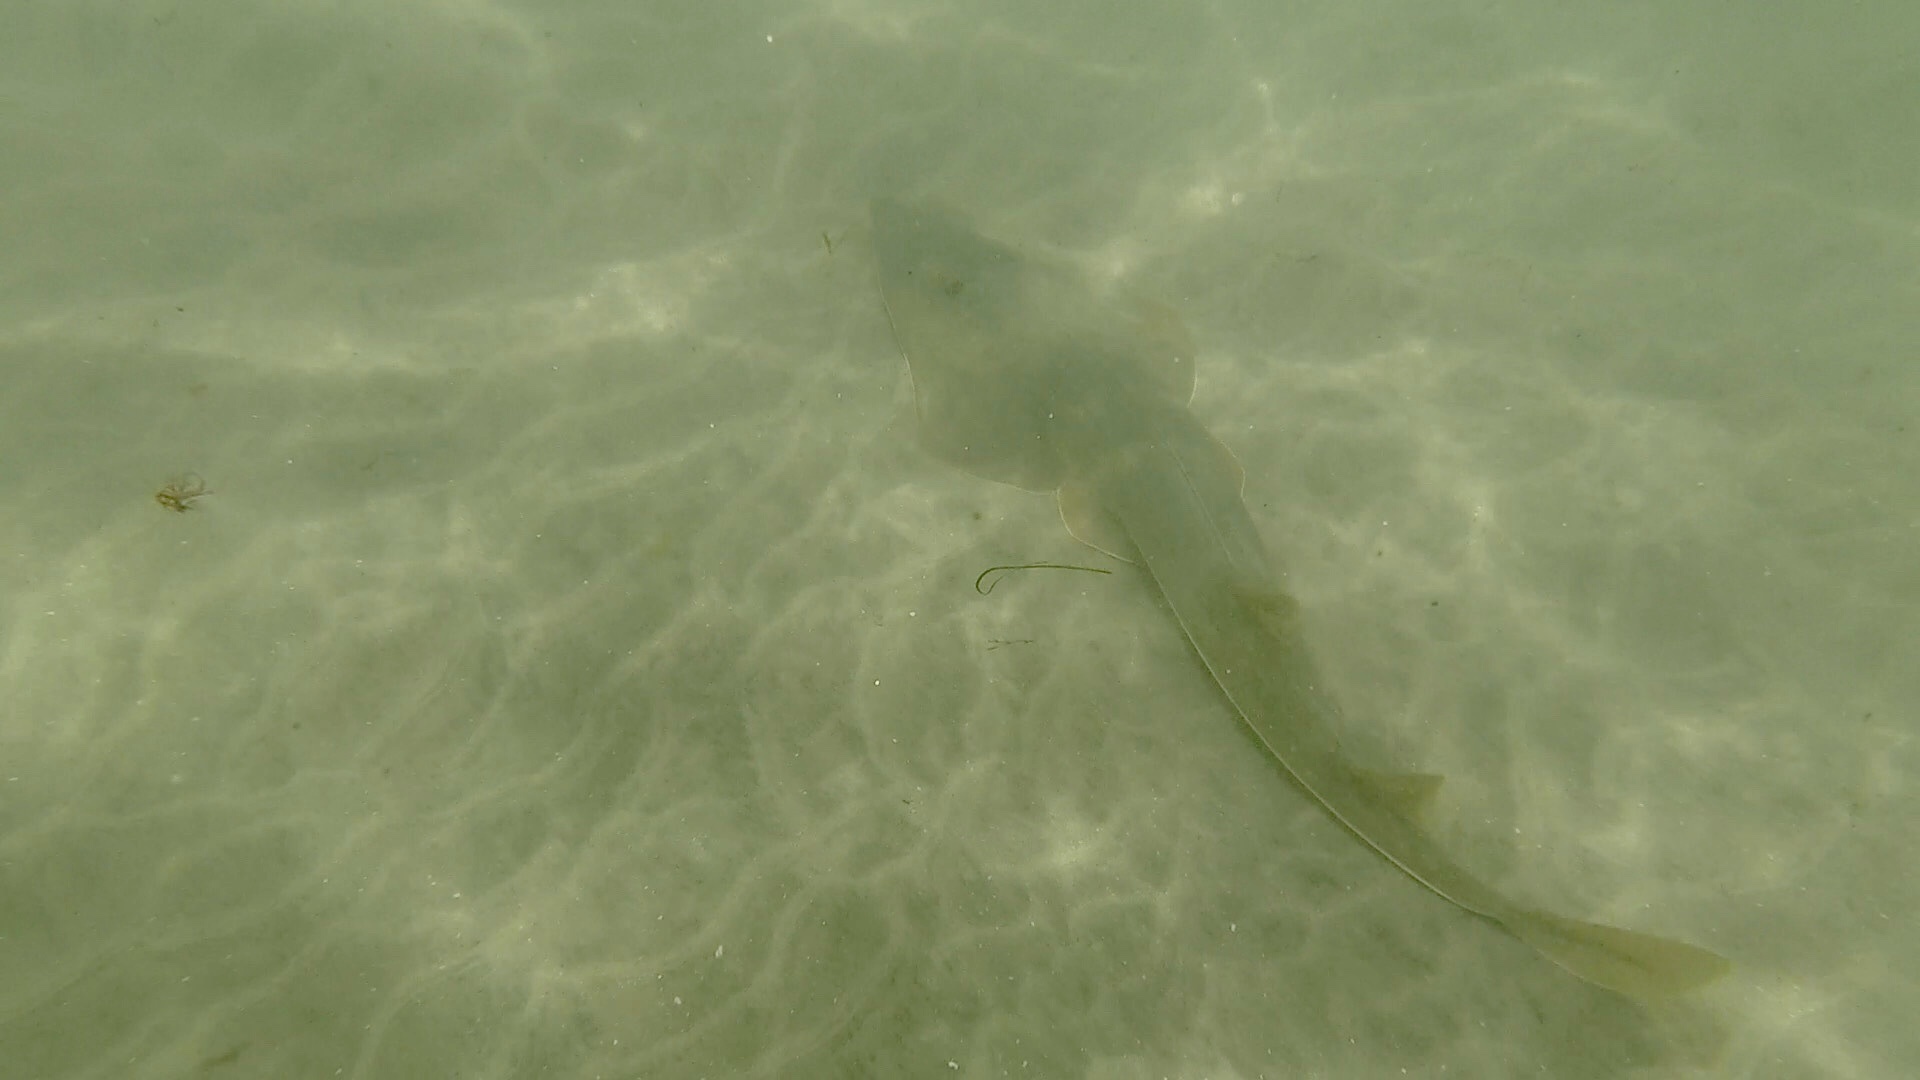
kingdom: Animalia
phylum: Chordata
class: Elasmobranchii
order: Rhinopristiformes
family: Rhinobatidae
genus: Pseudobatos
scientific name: Pseudobatos productus
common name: Shovelnose guitarfish
